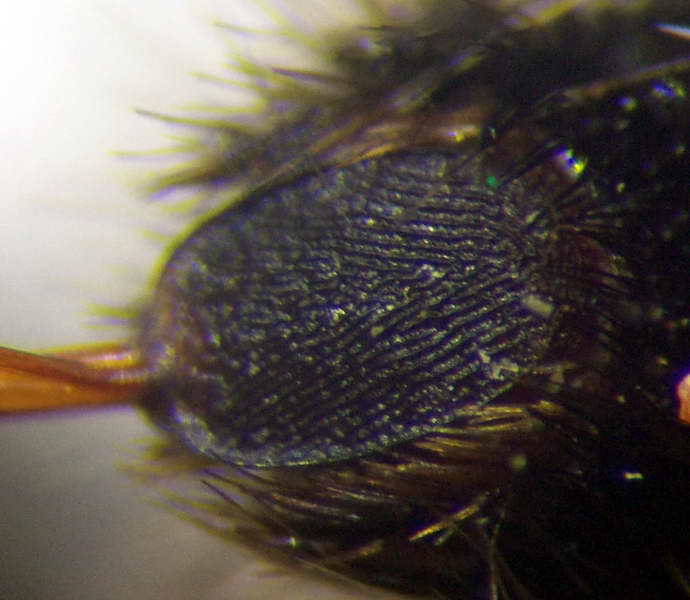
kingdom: Animalia
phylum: Arthropoda
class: Insecta
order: Hymenoptera
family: Mutillidae
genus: Nemka
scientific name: Nemka viduata
